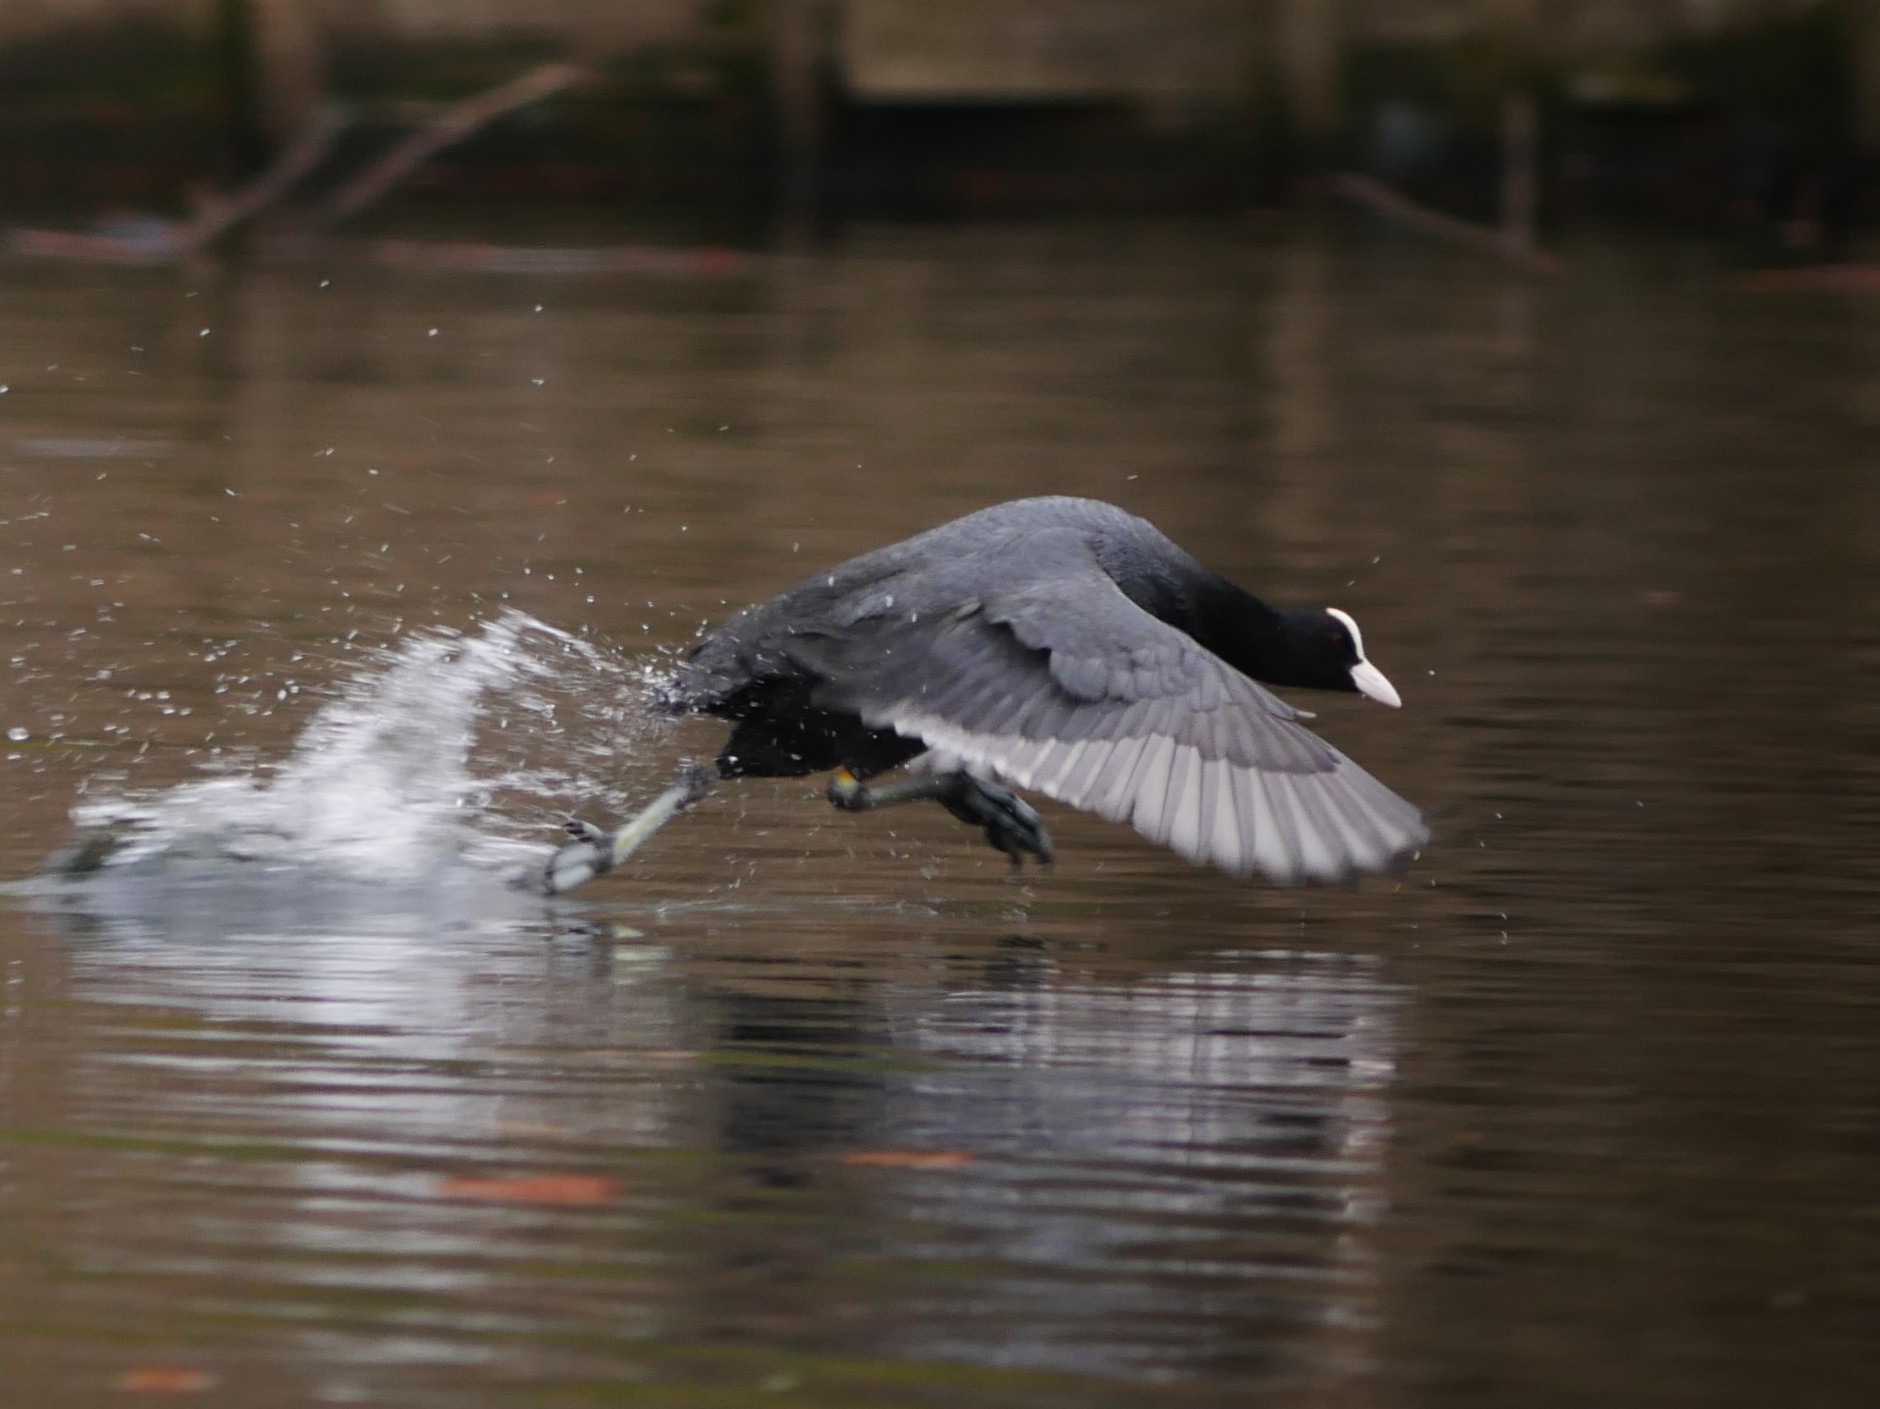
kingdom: Animalia
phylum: Chordata
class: Aves
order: Gruiformes
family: Rallidae
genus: Fulica
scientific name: Fulica atra
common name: Eurasian coot
